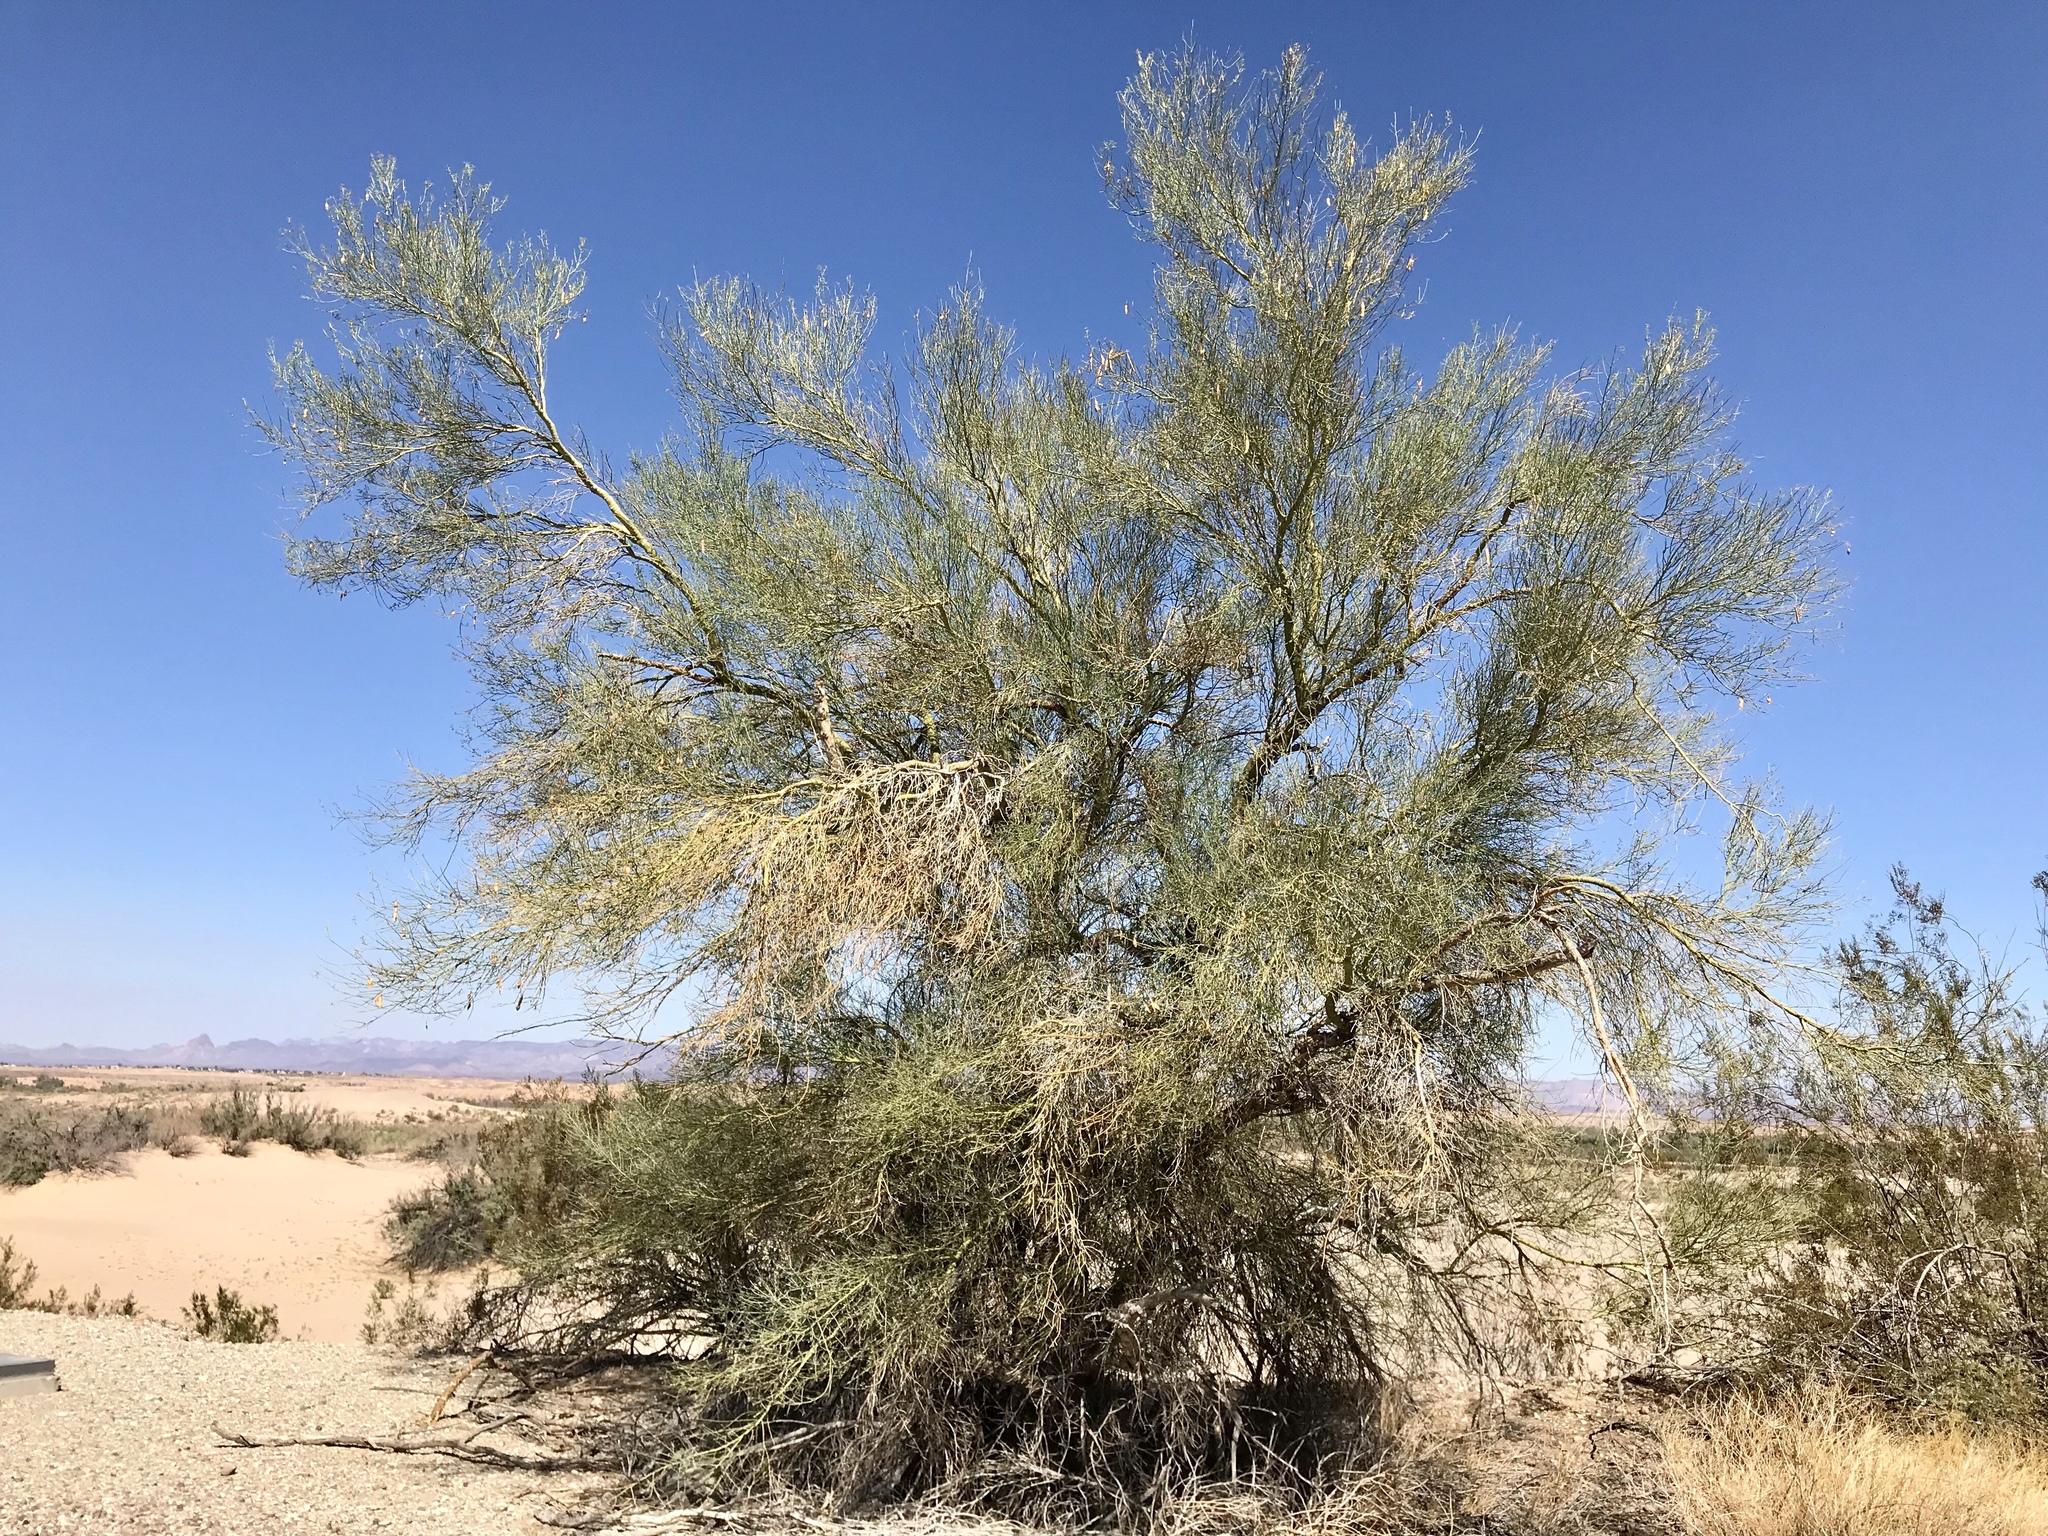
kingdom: Plantae
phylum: Tracheophyta
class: Magnoliopsida
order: Fabales
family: Fabaceae
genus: Parkinsonia
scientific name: Parkinsonia florida
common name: Blue paloverde
